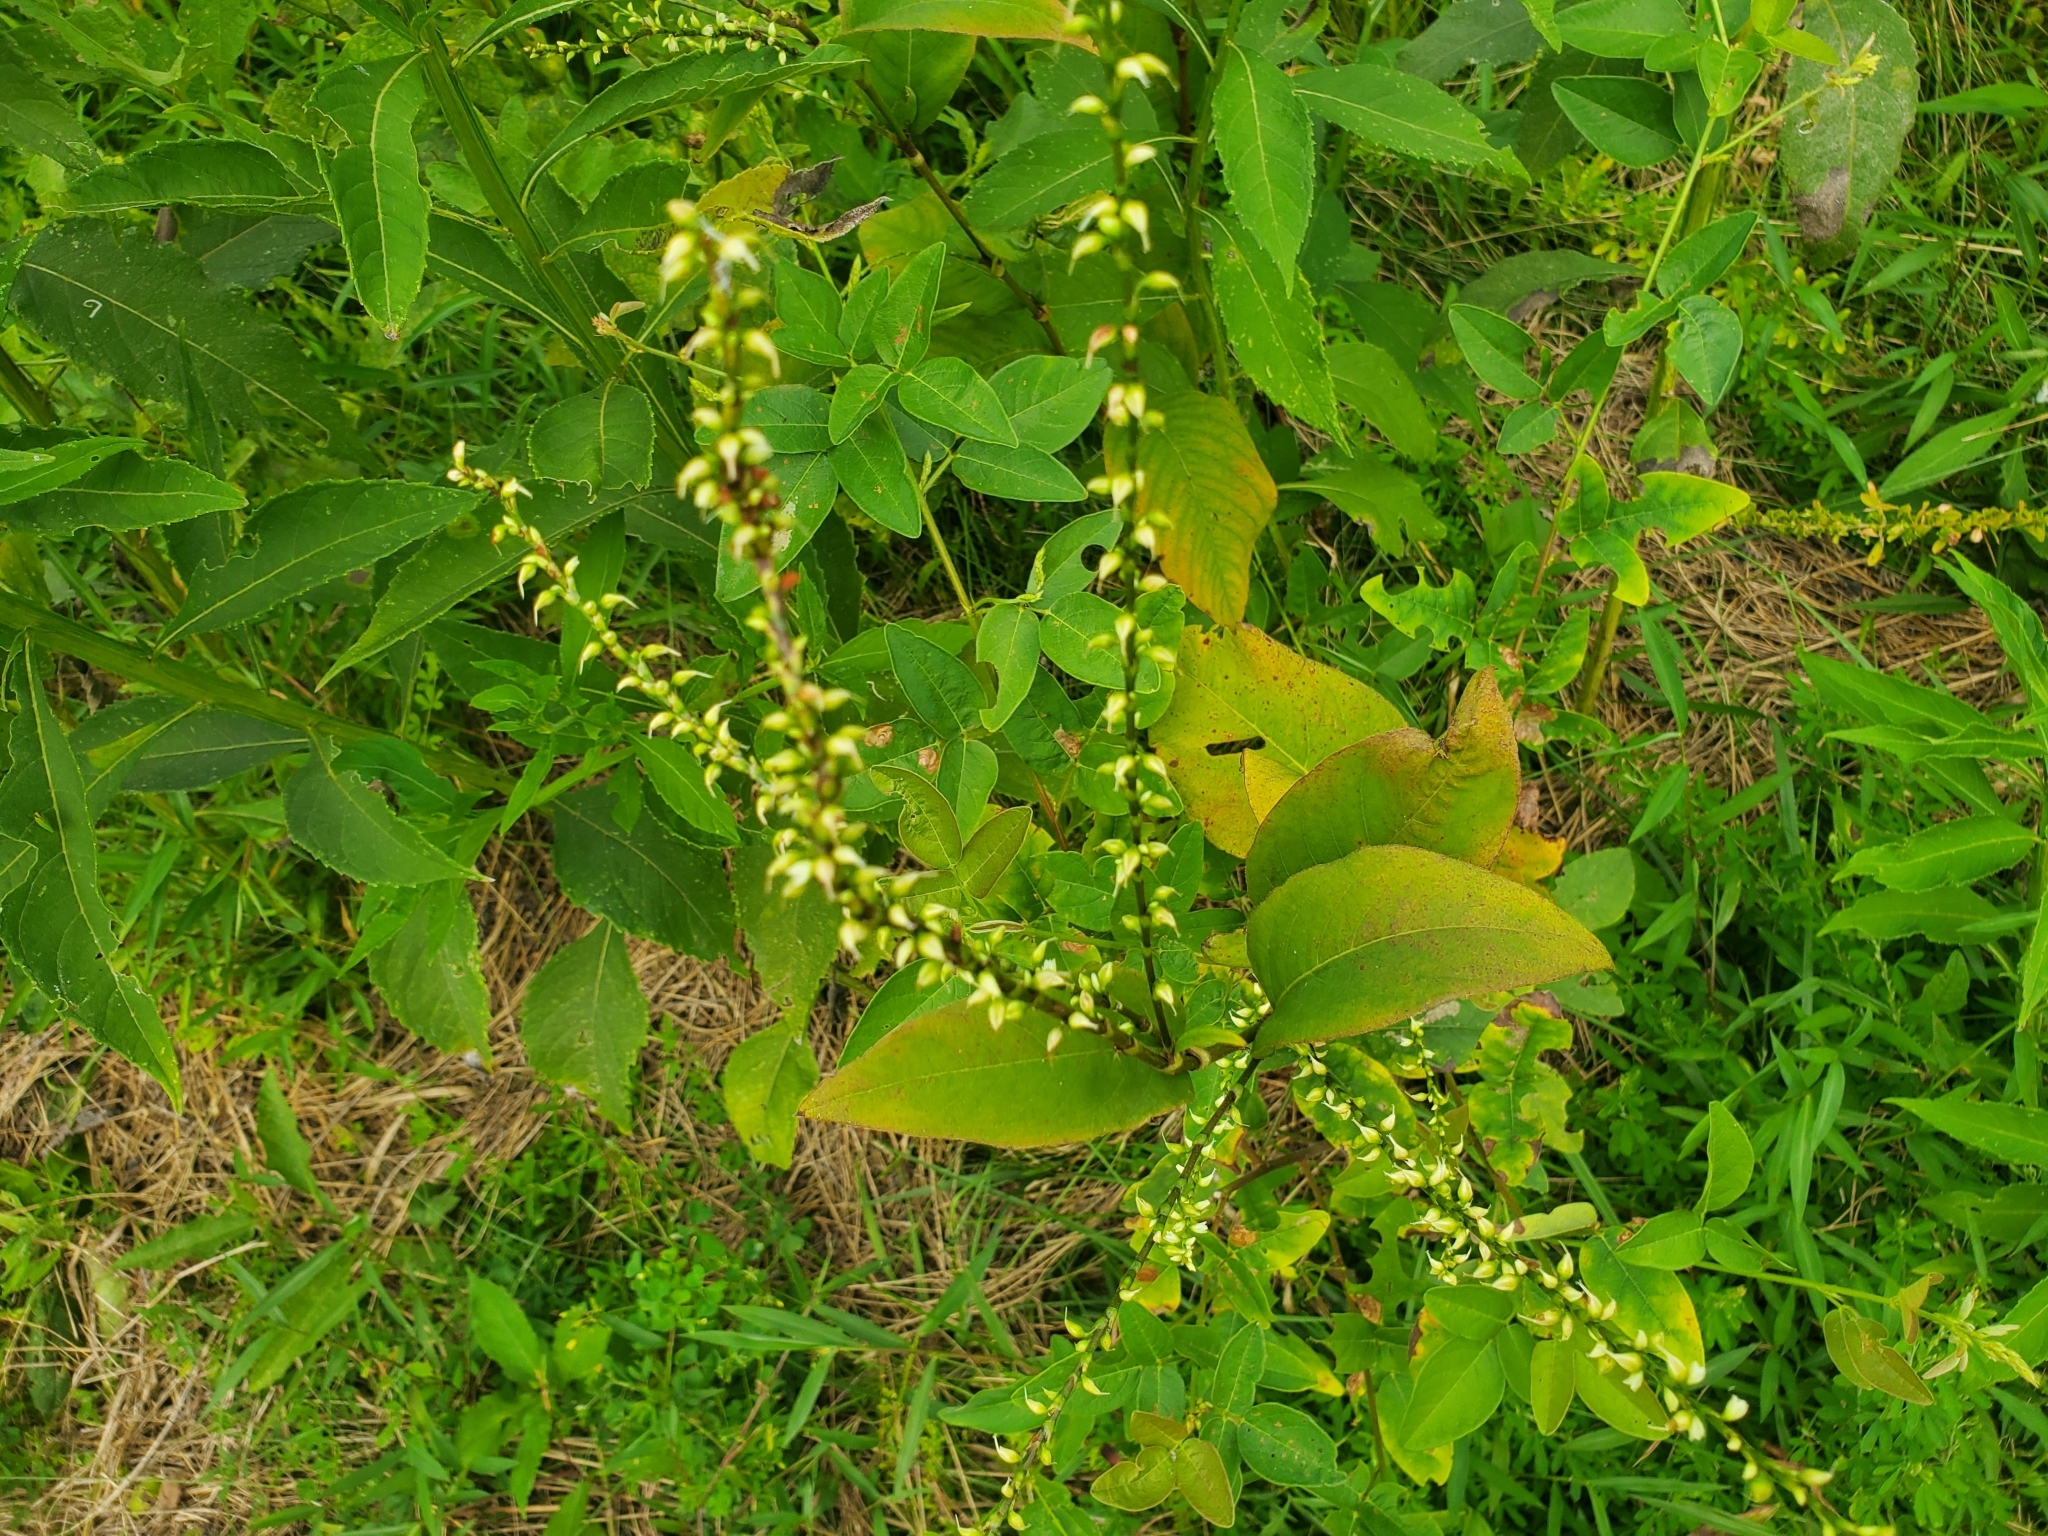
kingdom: Plantae
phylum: Tracheophyta
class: Magnoliopsida
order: Caryophyllales
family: Polygonaceae
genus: Persicaria
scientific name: Persicaria virginiana
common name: Jumpseed
